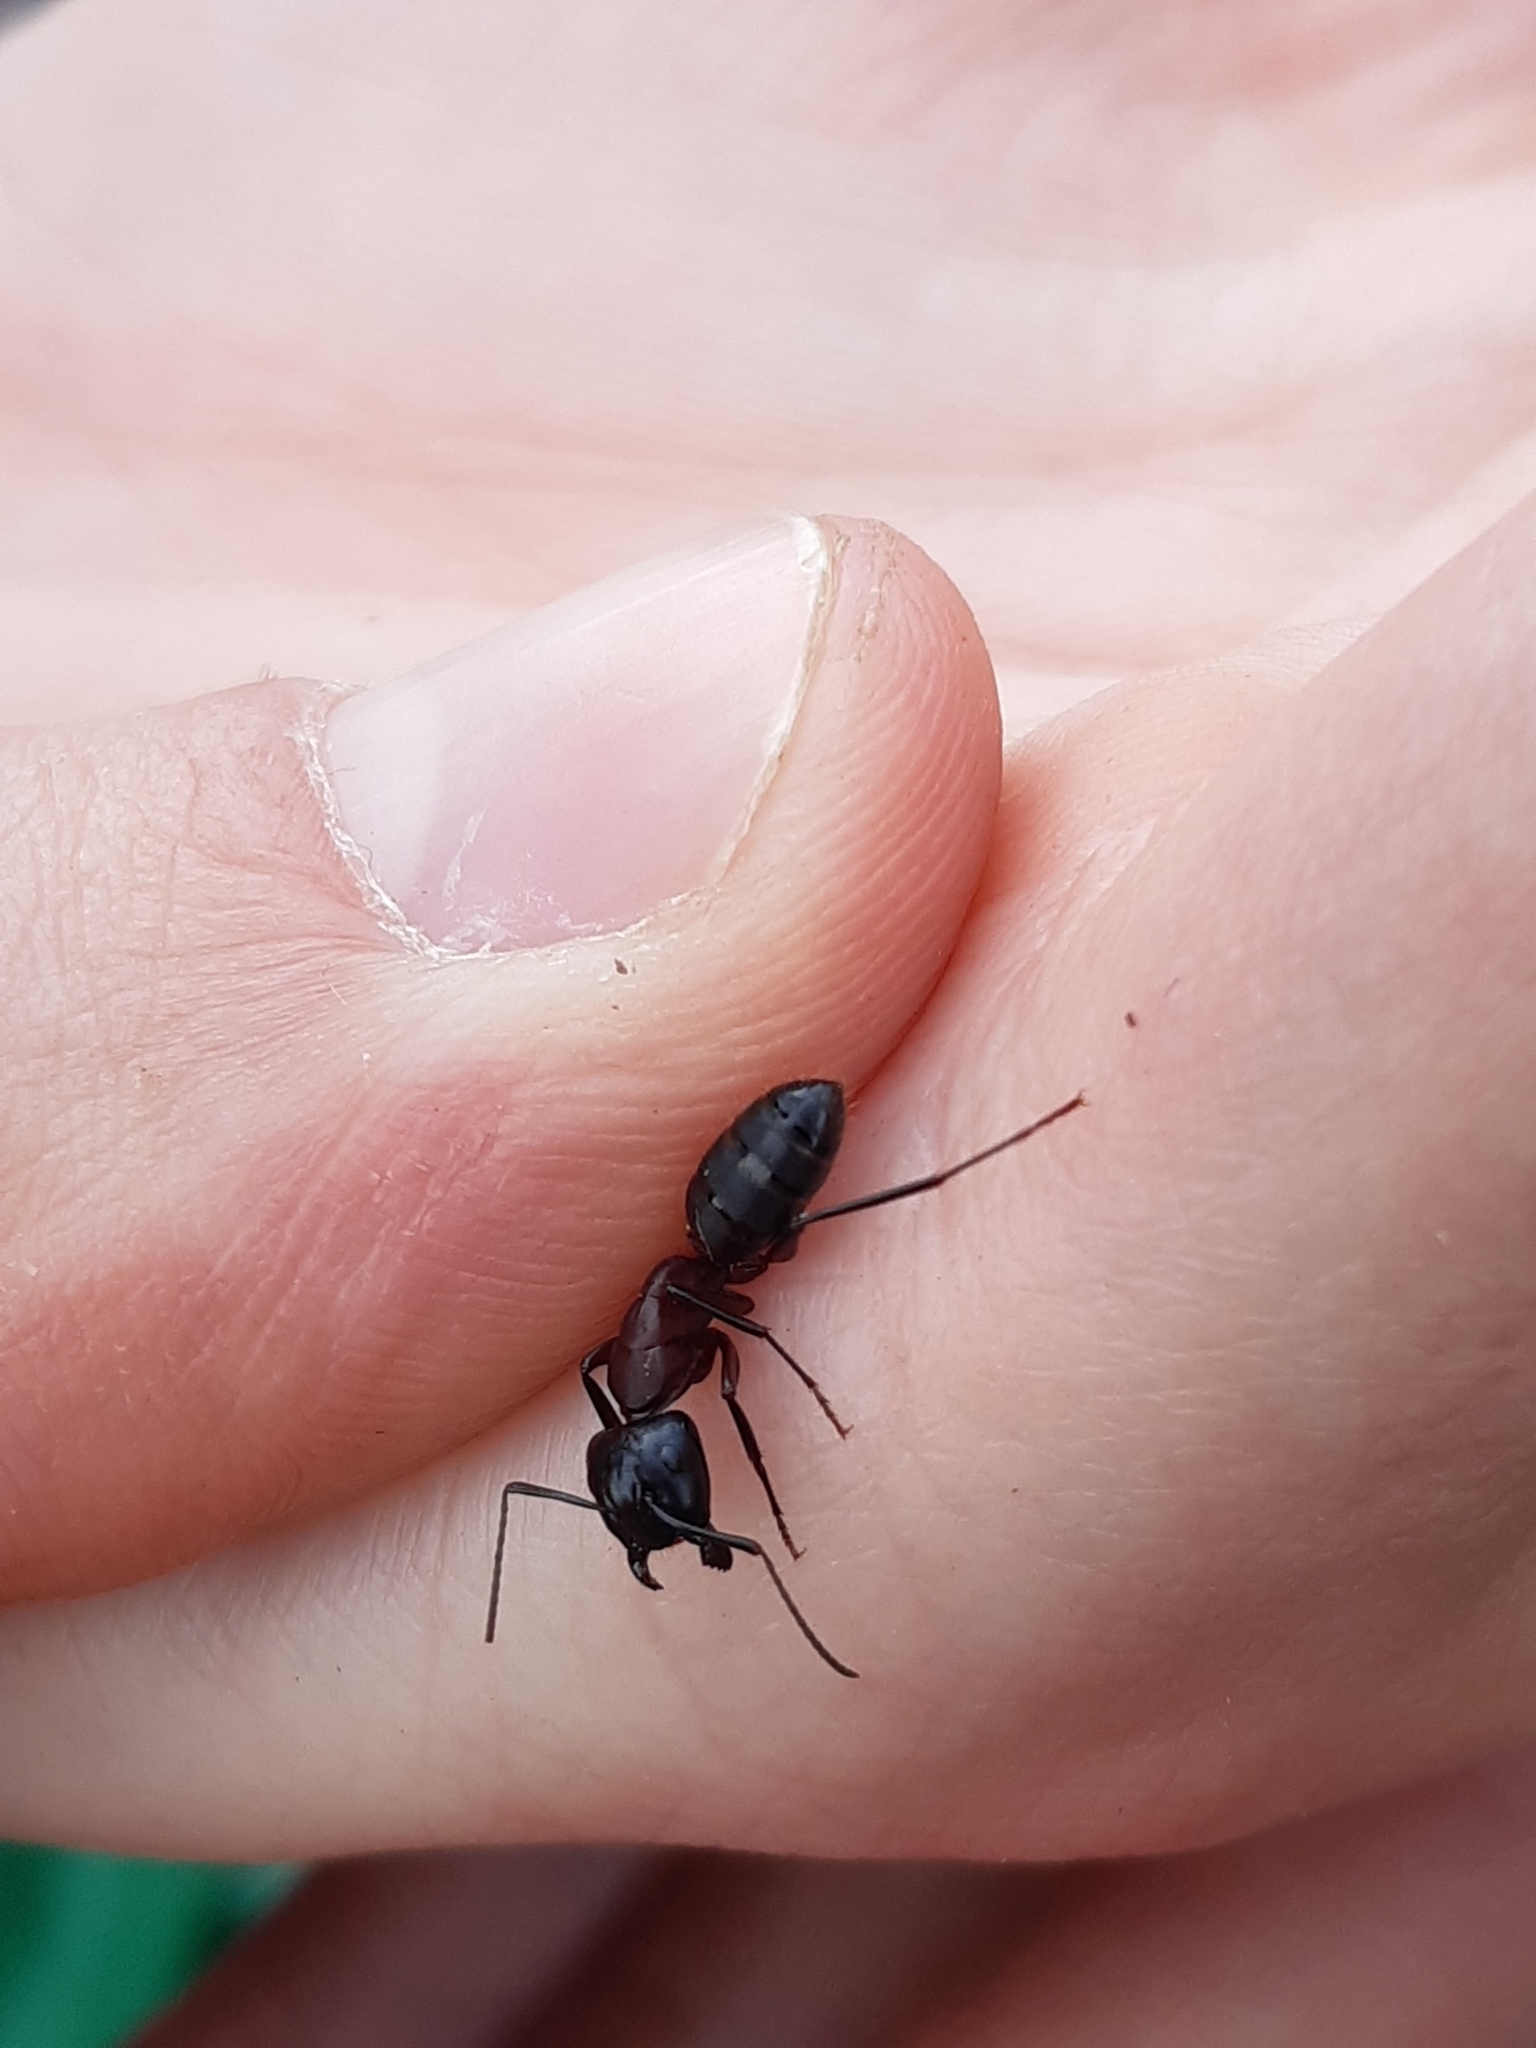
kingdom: Animalia
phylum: Arthropoda
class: Insecta
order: Hymenoptera
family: Formicidae
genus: Camponotus
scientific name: Camponotus ligniperdus
